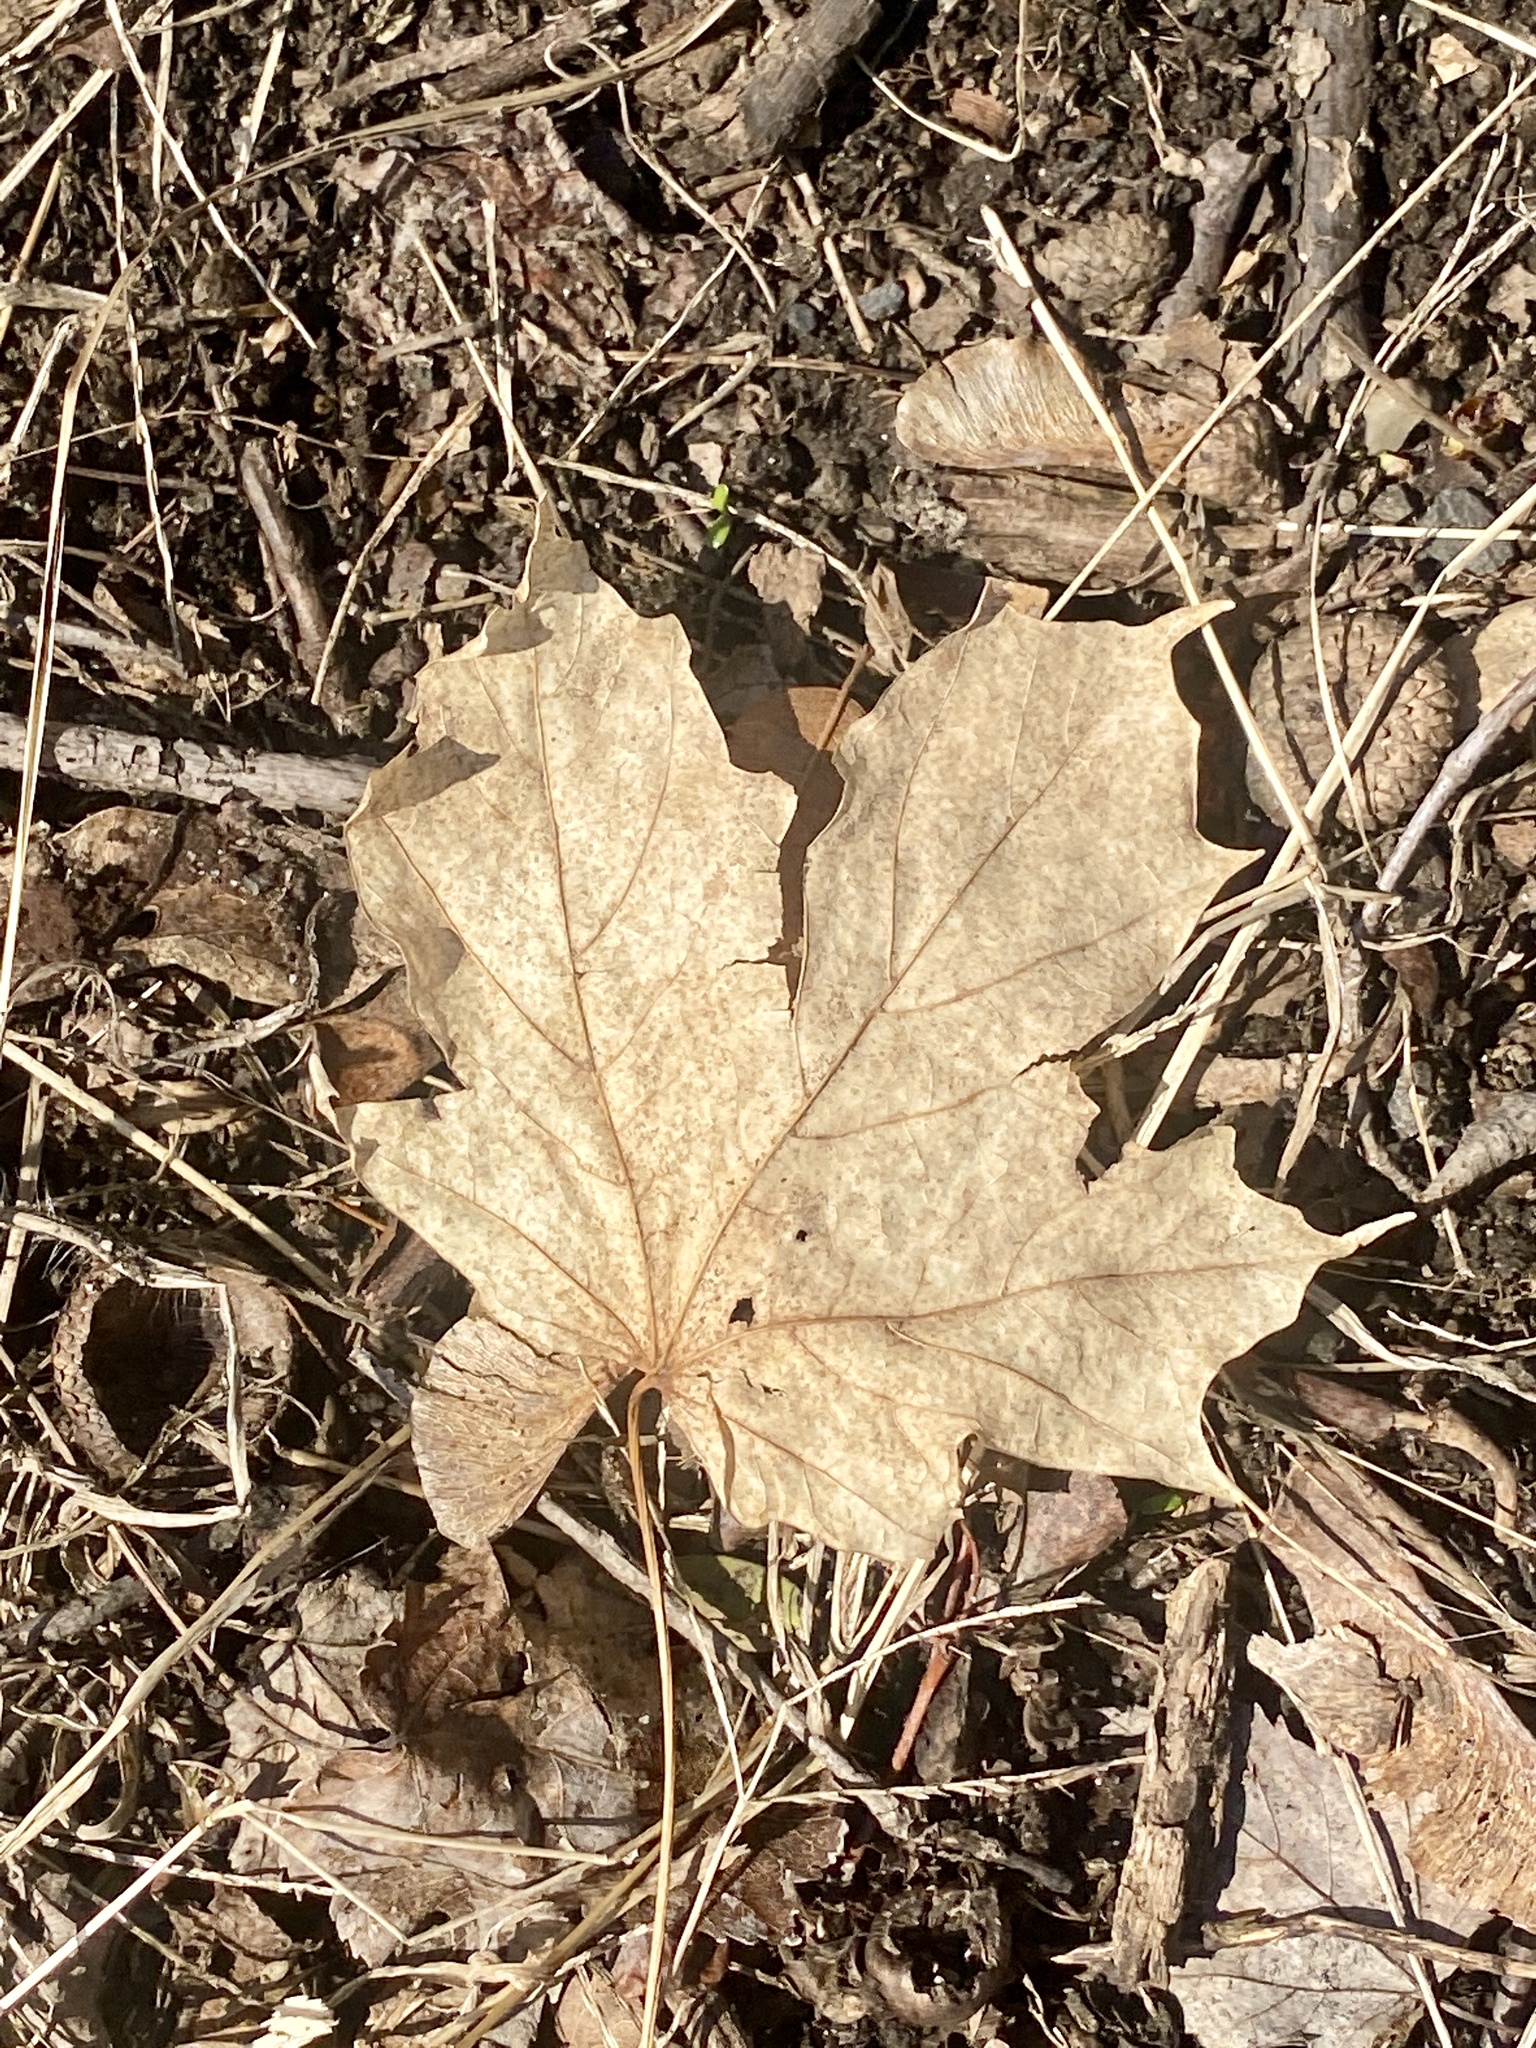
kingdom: Plantae
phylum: Tracheophyta
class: Magnoliopsida
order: Sapindales
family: Sapindaceae
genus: Acer
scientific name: Acer saccharum
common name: Sugar maple
